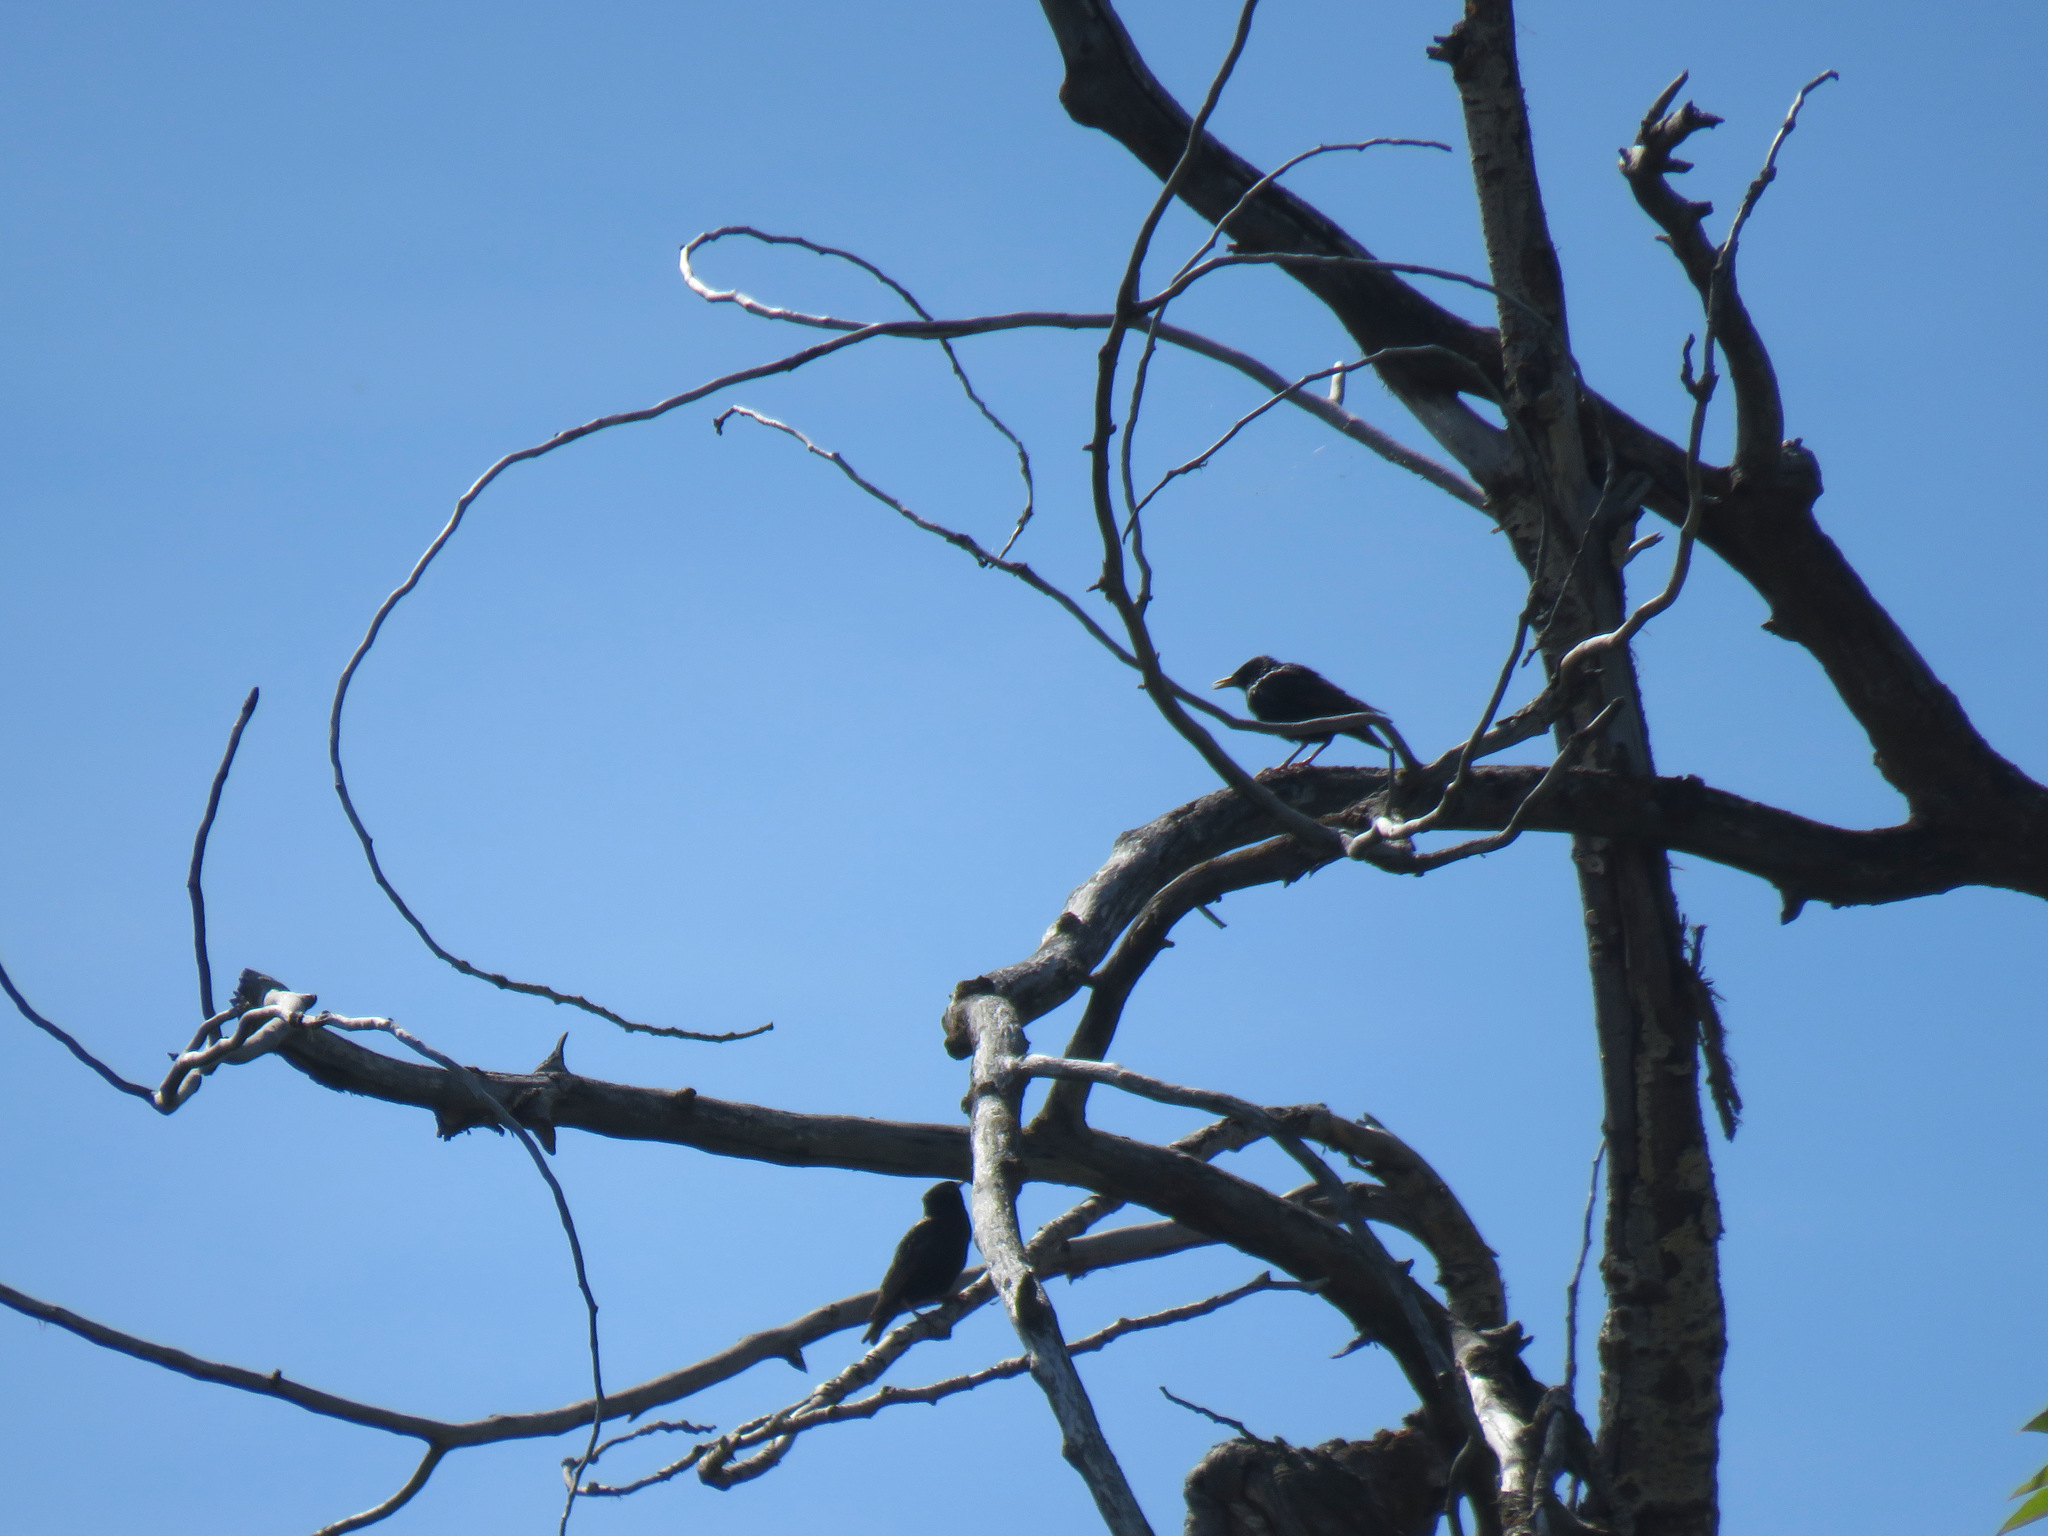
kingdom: Animalia
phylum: Chordata
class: Aves
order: Passeriformes
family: Sturnidae
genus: Sturnus
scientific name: Sturnus vulgaris
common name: Common starling
